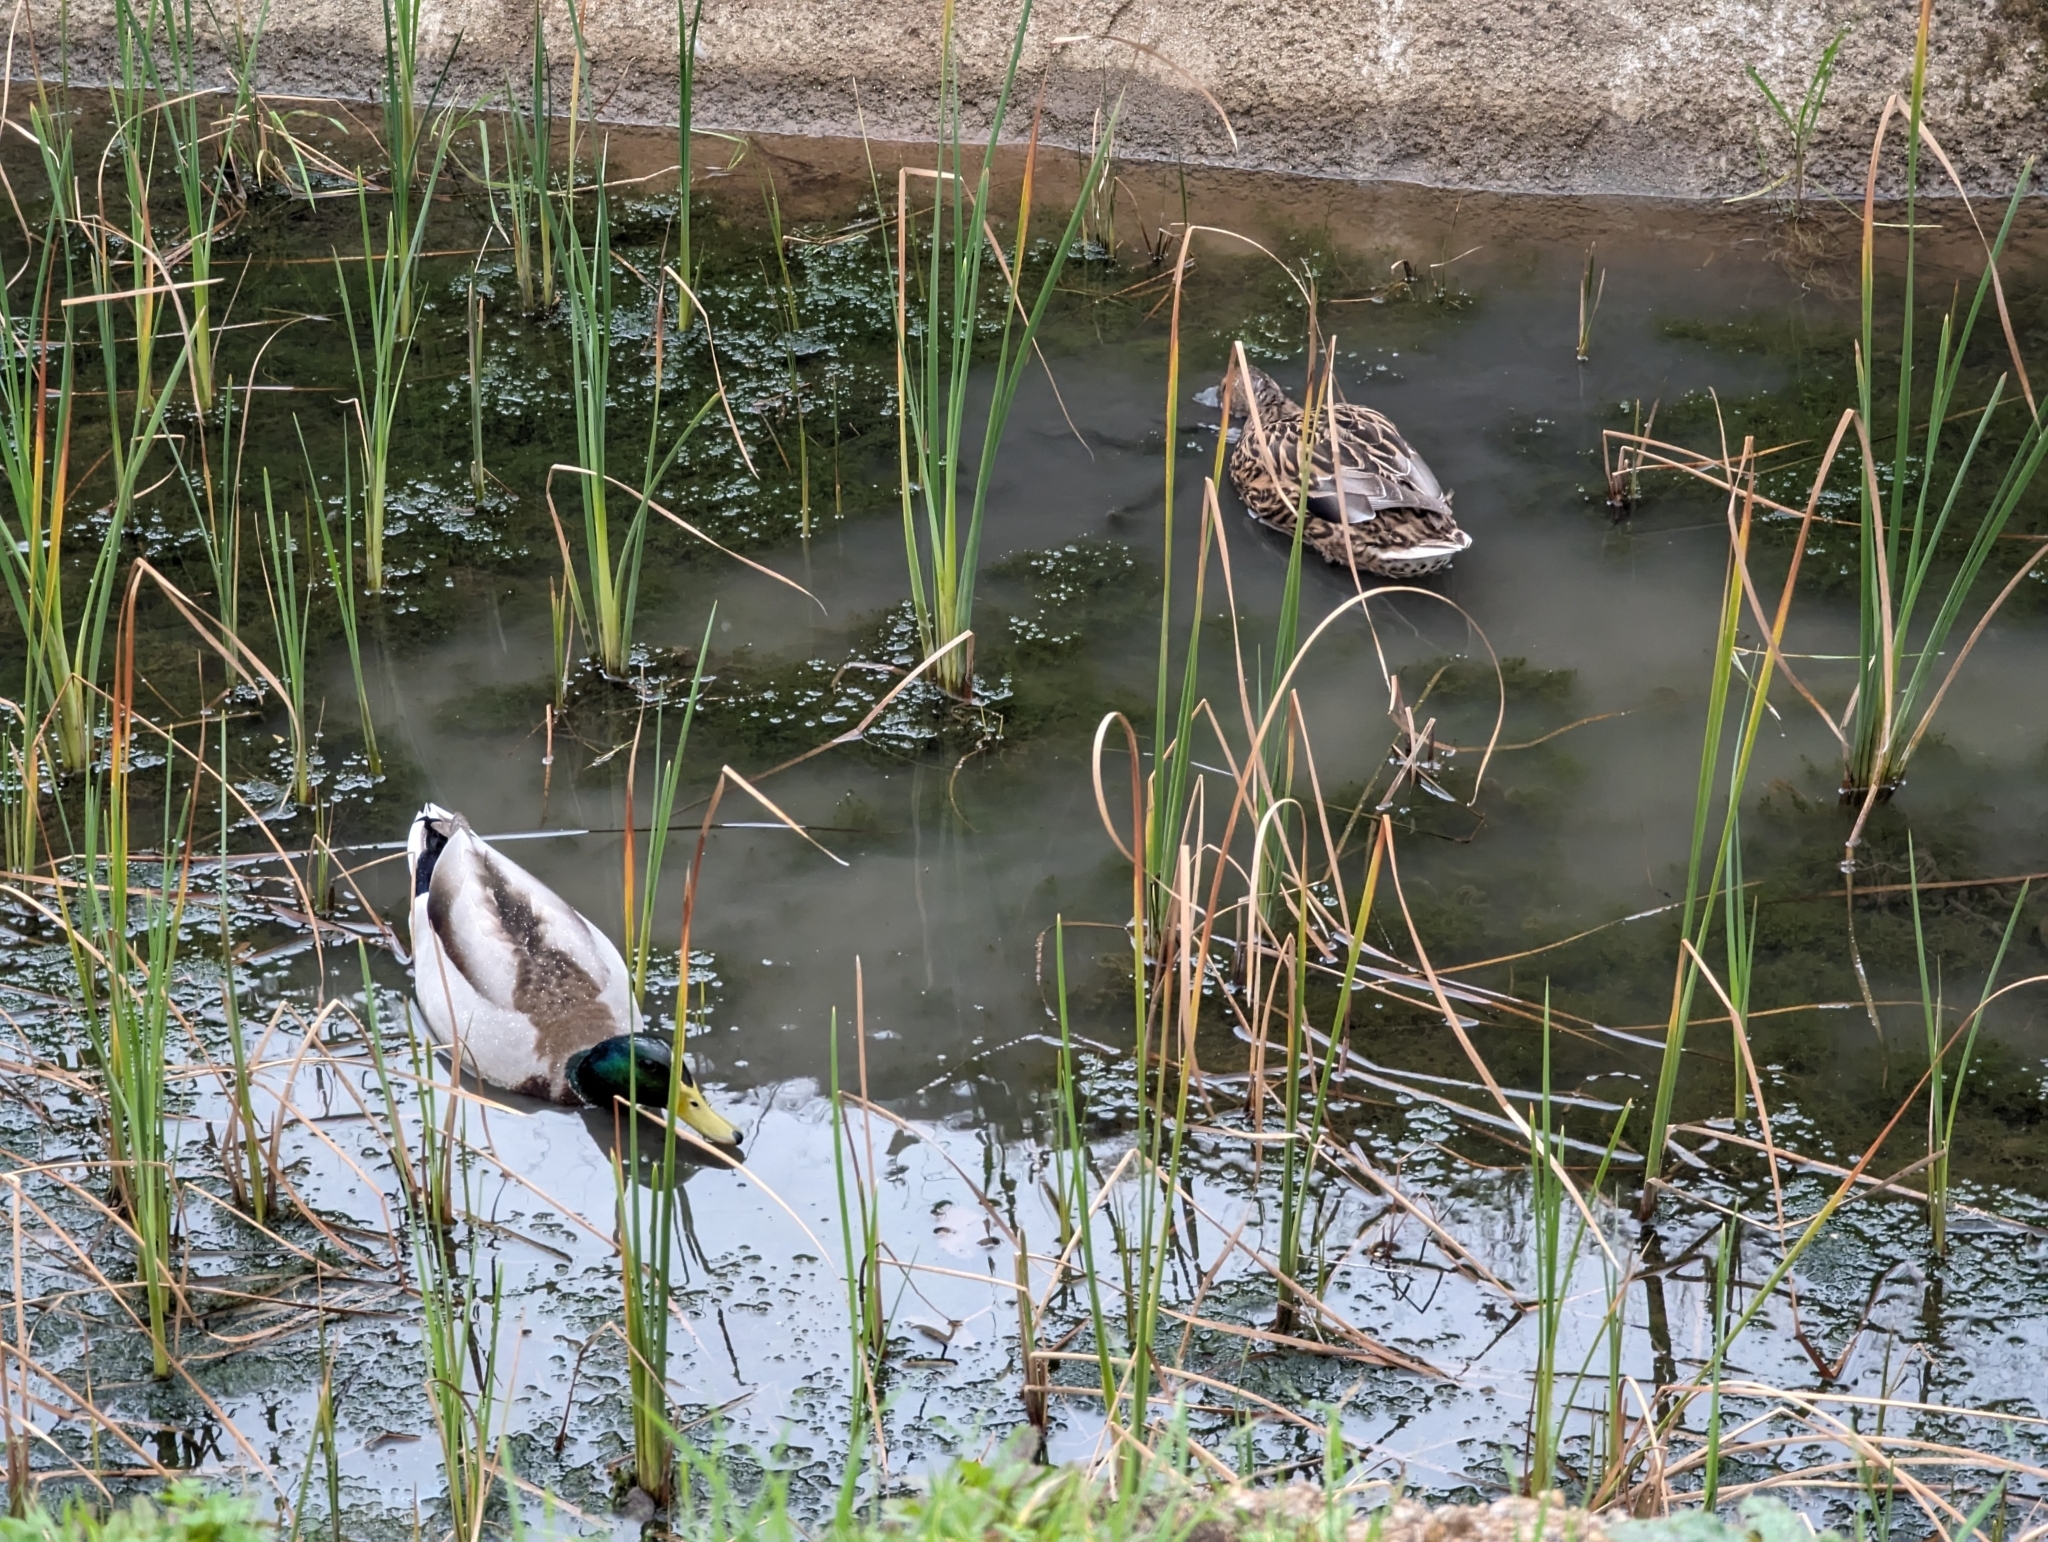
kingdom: Animalia
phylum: Chordata
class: Aves
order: Anseriformes
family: Anatidae
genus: Anas
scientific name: Anas platyrhynchos
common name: Mallard
